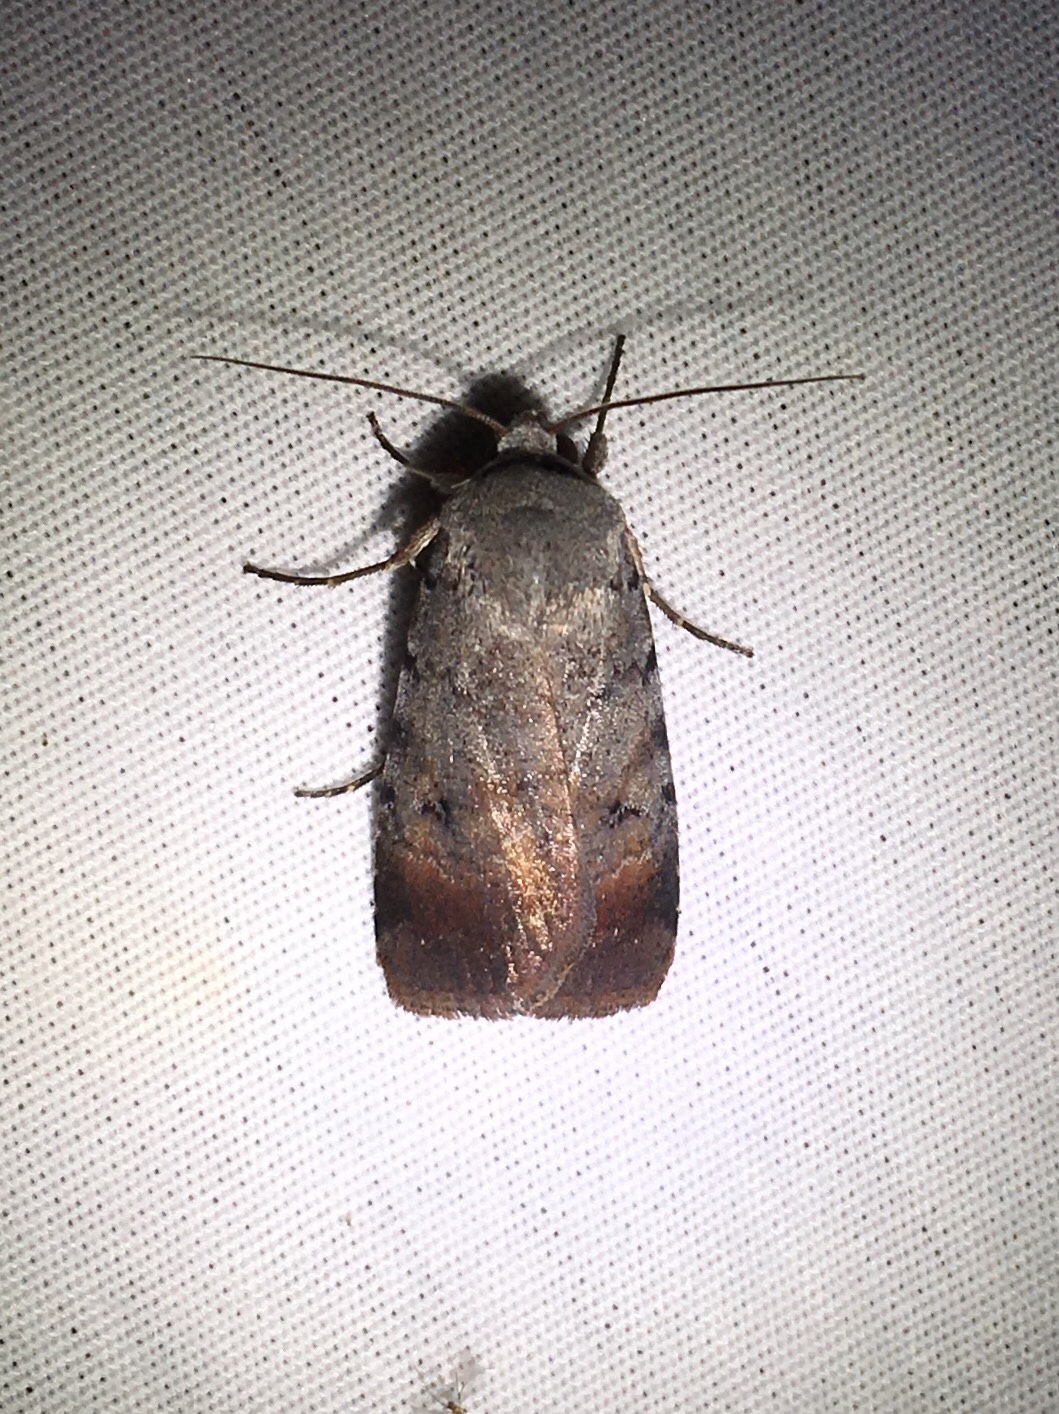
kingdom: Animalia
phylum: Arthropoda
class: Insecta
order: Lepidoptera
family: Noctuidae
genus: Anicla
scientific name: Anicla illapsa
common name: Snowy dart
